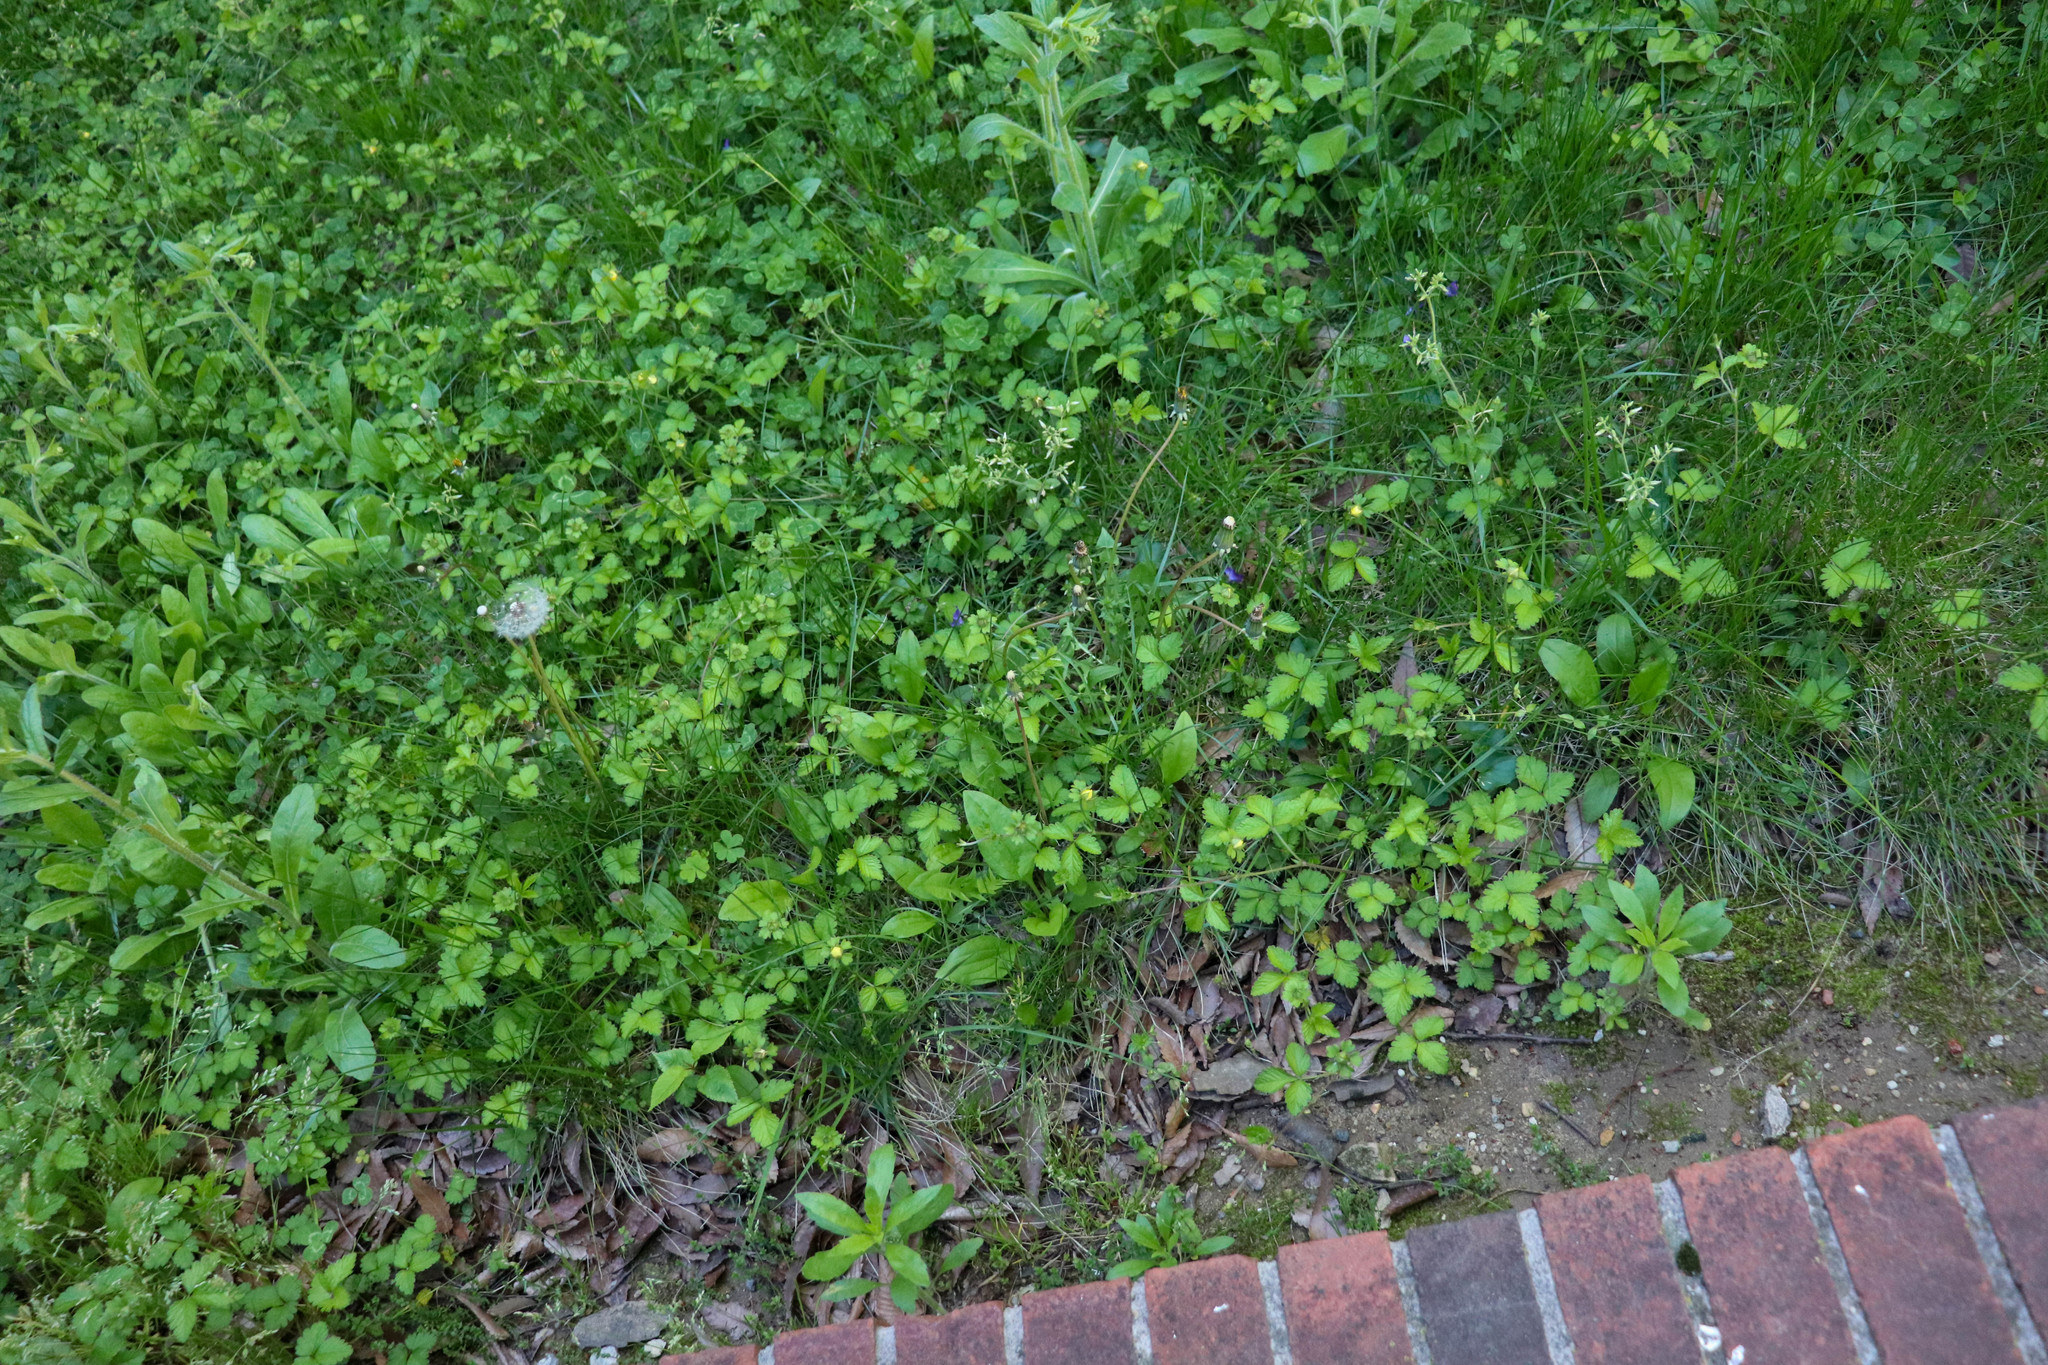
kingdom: Plantae
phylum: Tracheophyta
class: Magnoliopsida
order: Rosales
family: Rosaceae
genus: Potentilla
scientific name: Potentilla indica
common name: Yellow-flowered strawberry
